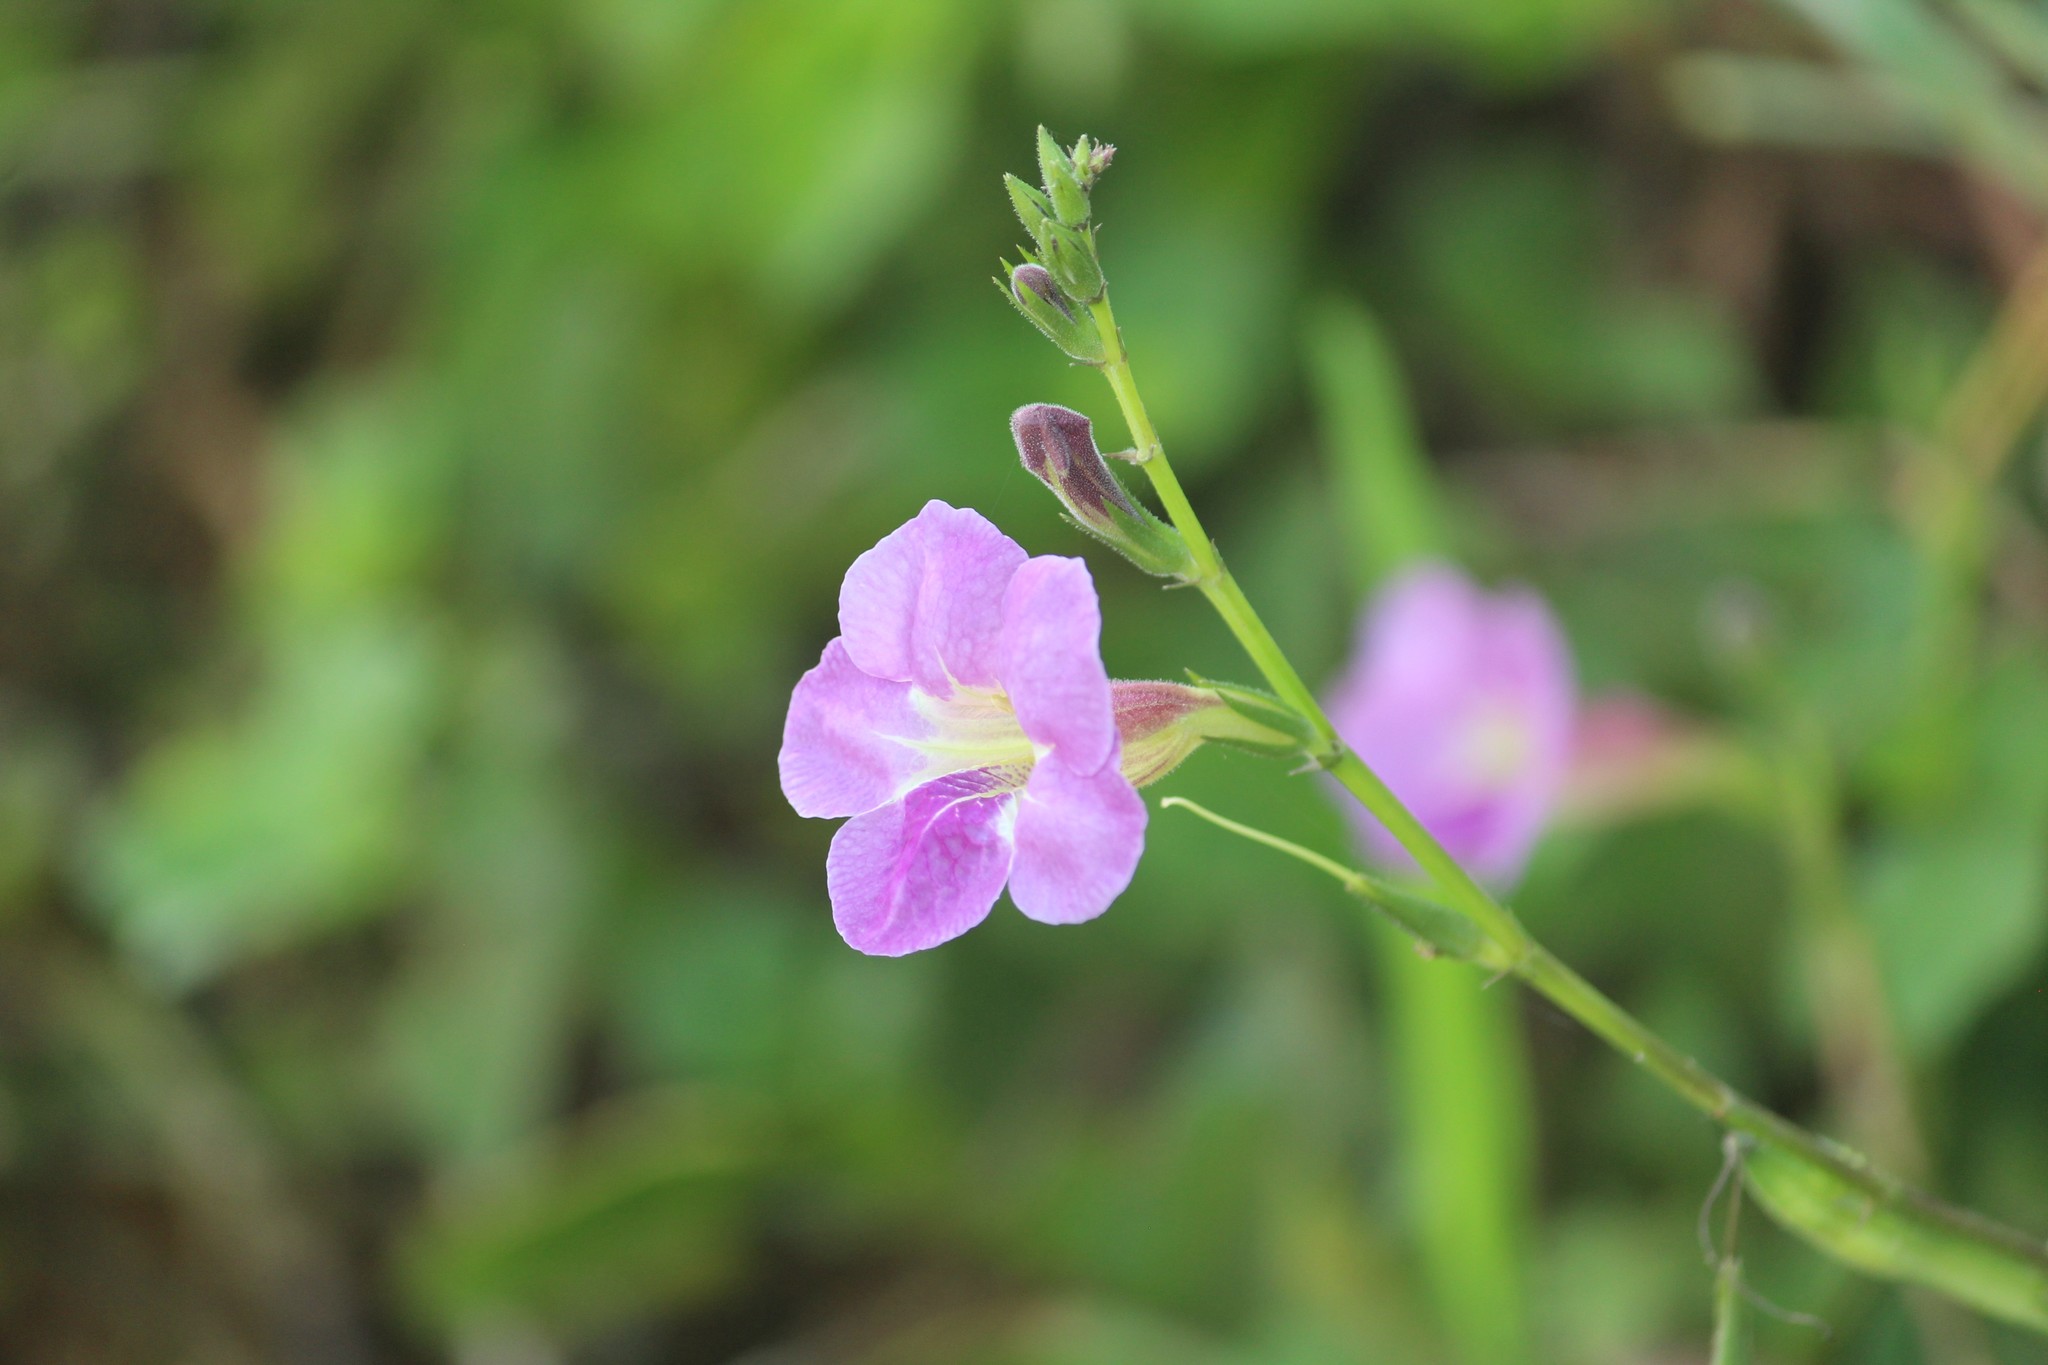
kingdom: Plantae
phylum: Tracheophyta
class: Magnoliopsida
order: Lamiales
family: Acanthaceae
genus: Asystasia
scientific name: Asystasia gangetica
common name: Chinese violet
